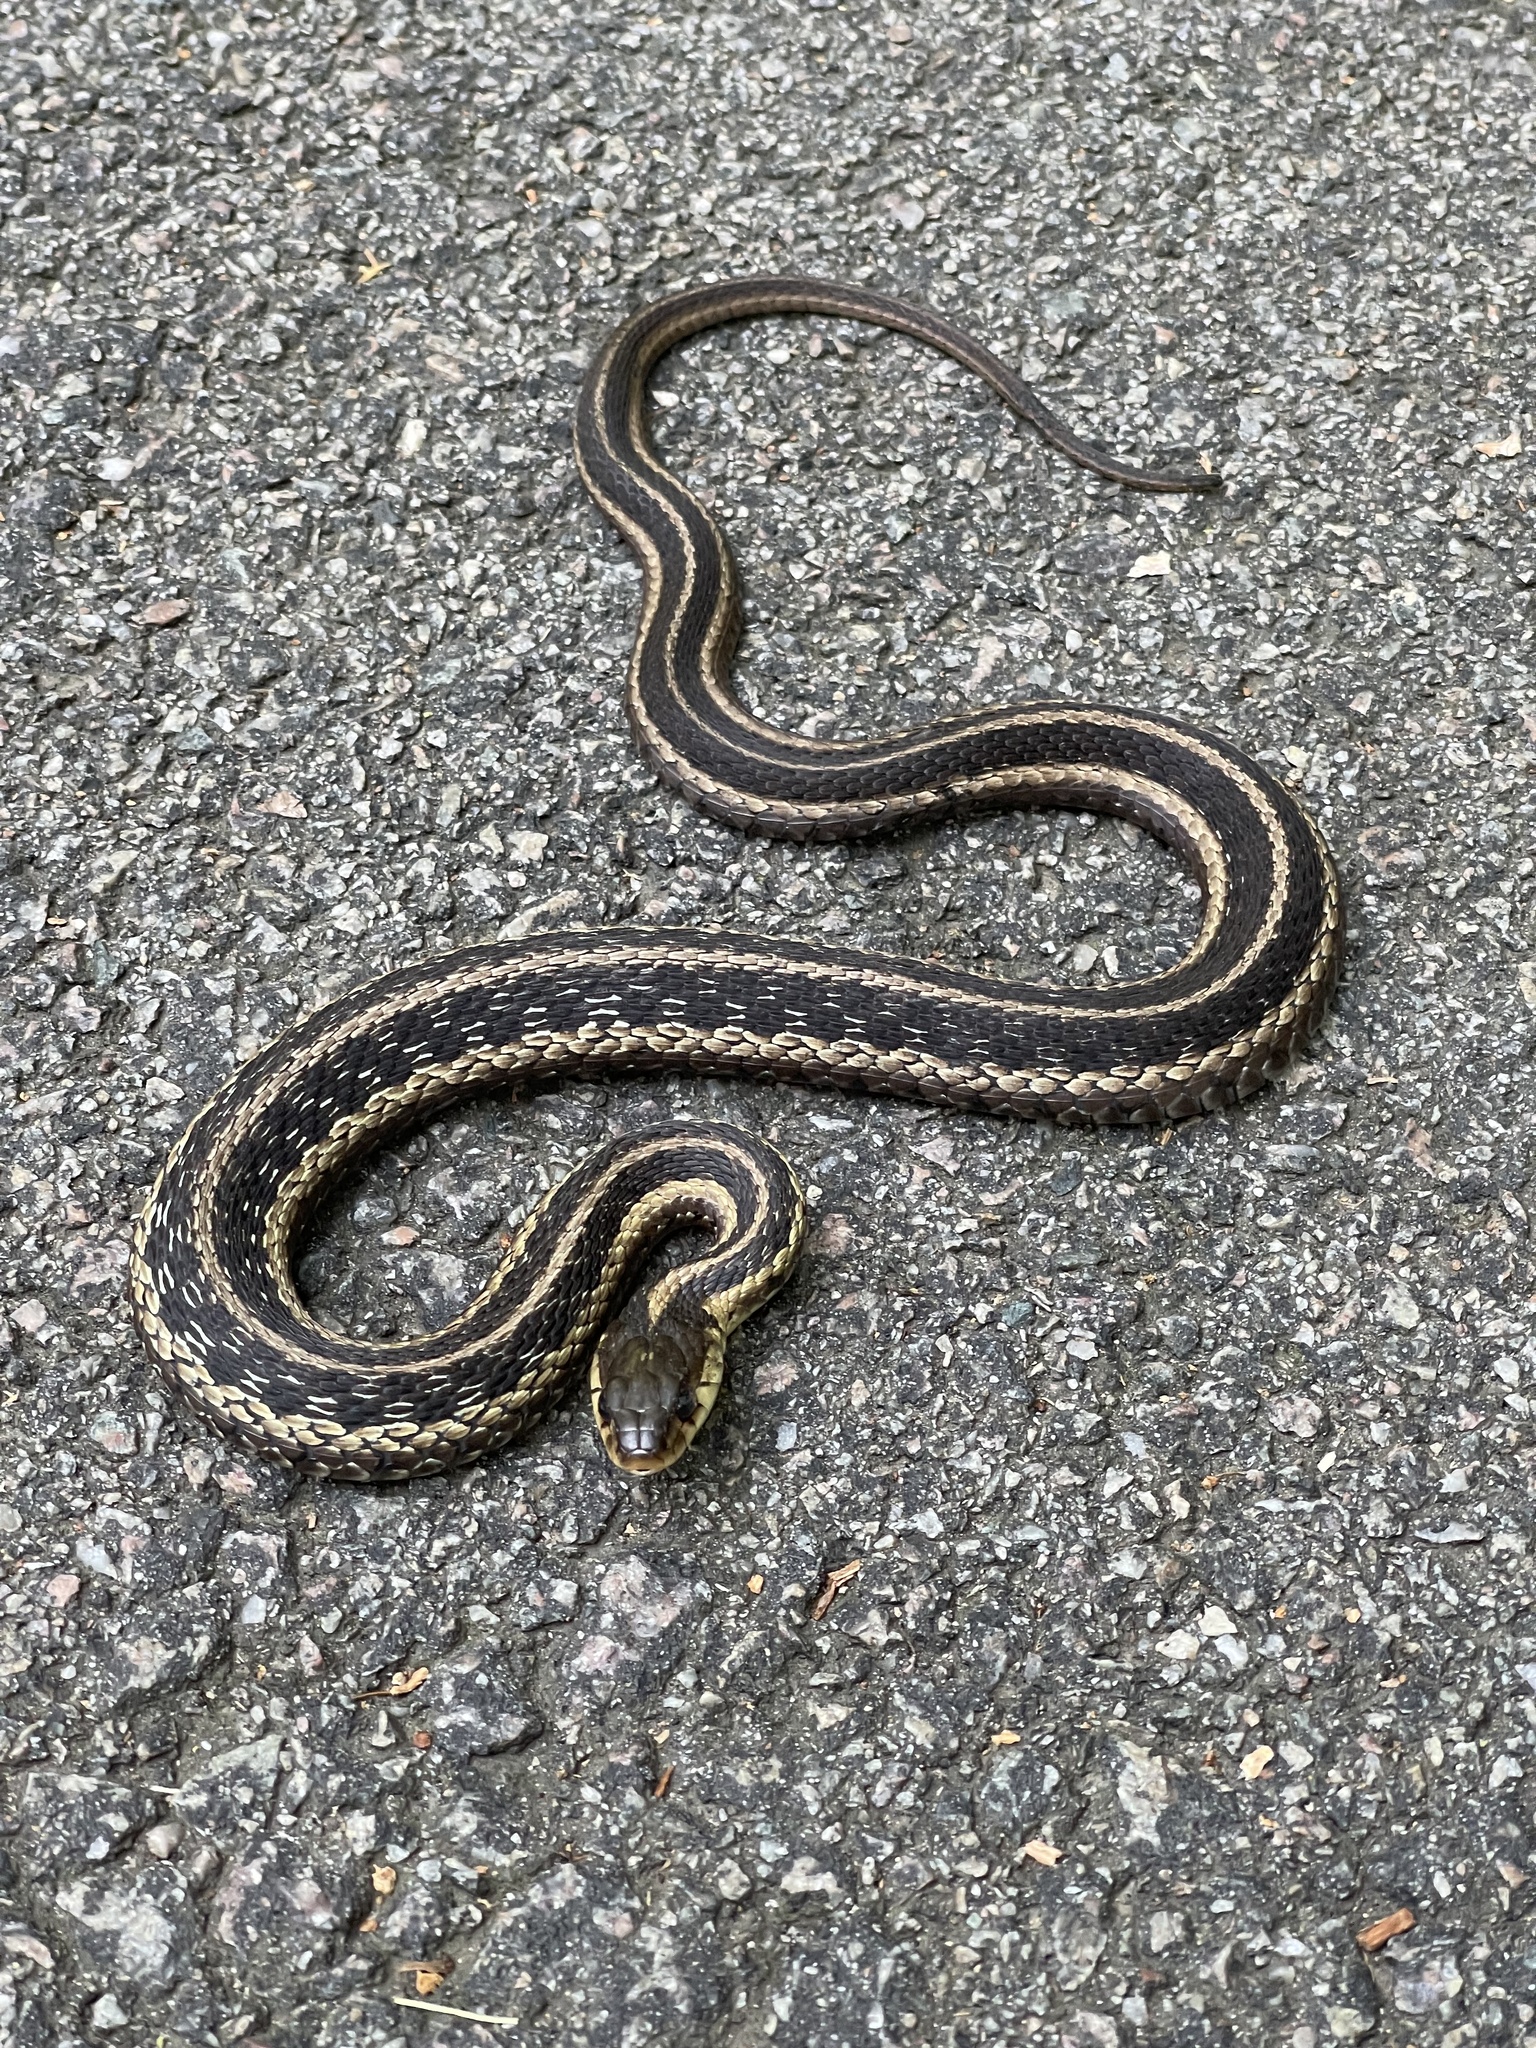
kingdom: Animalia
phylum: Chordata
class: Squamata
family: Colubridae
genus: Thamnophis
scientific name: Thamnophis sirtalis
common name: Common garter snake
